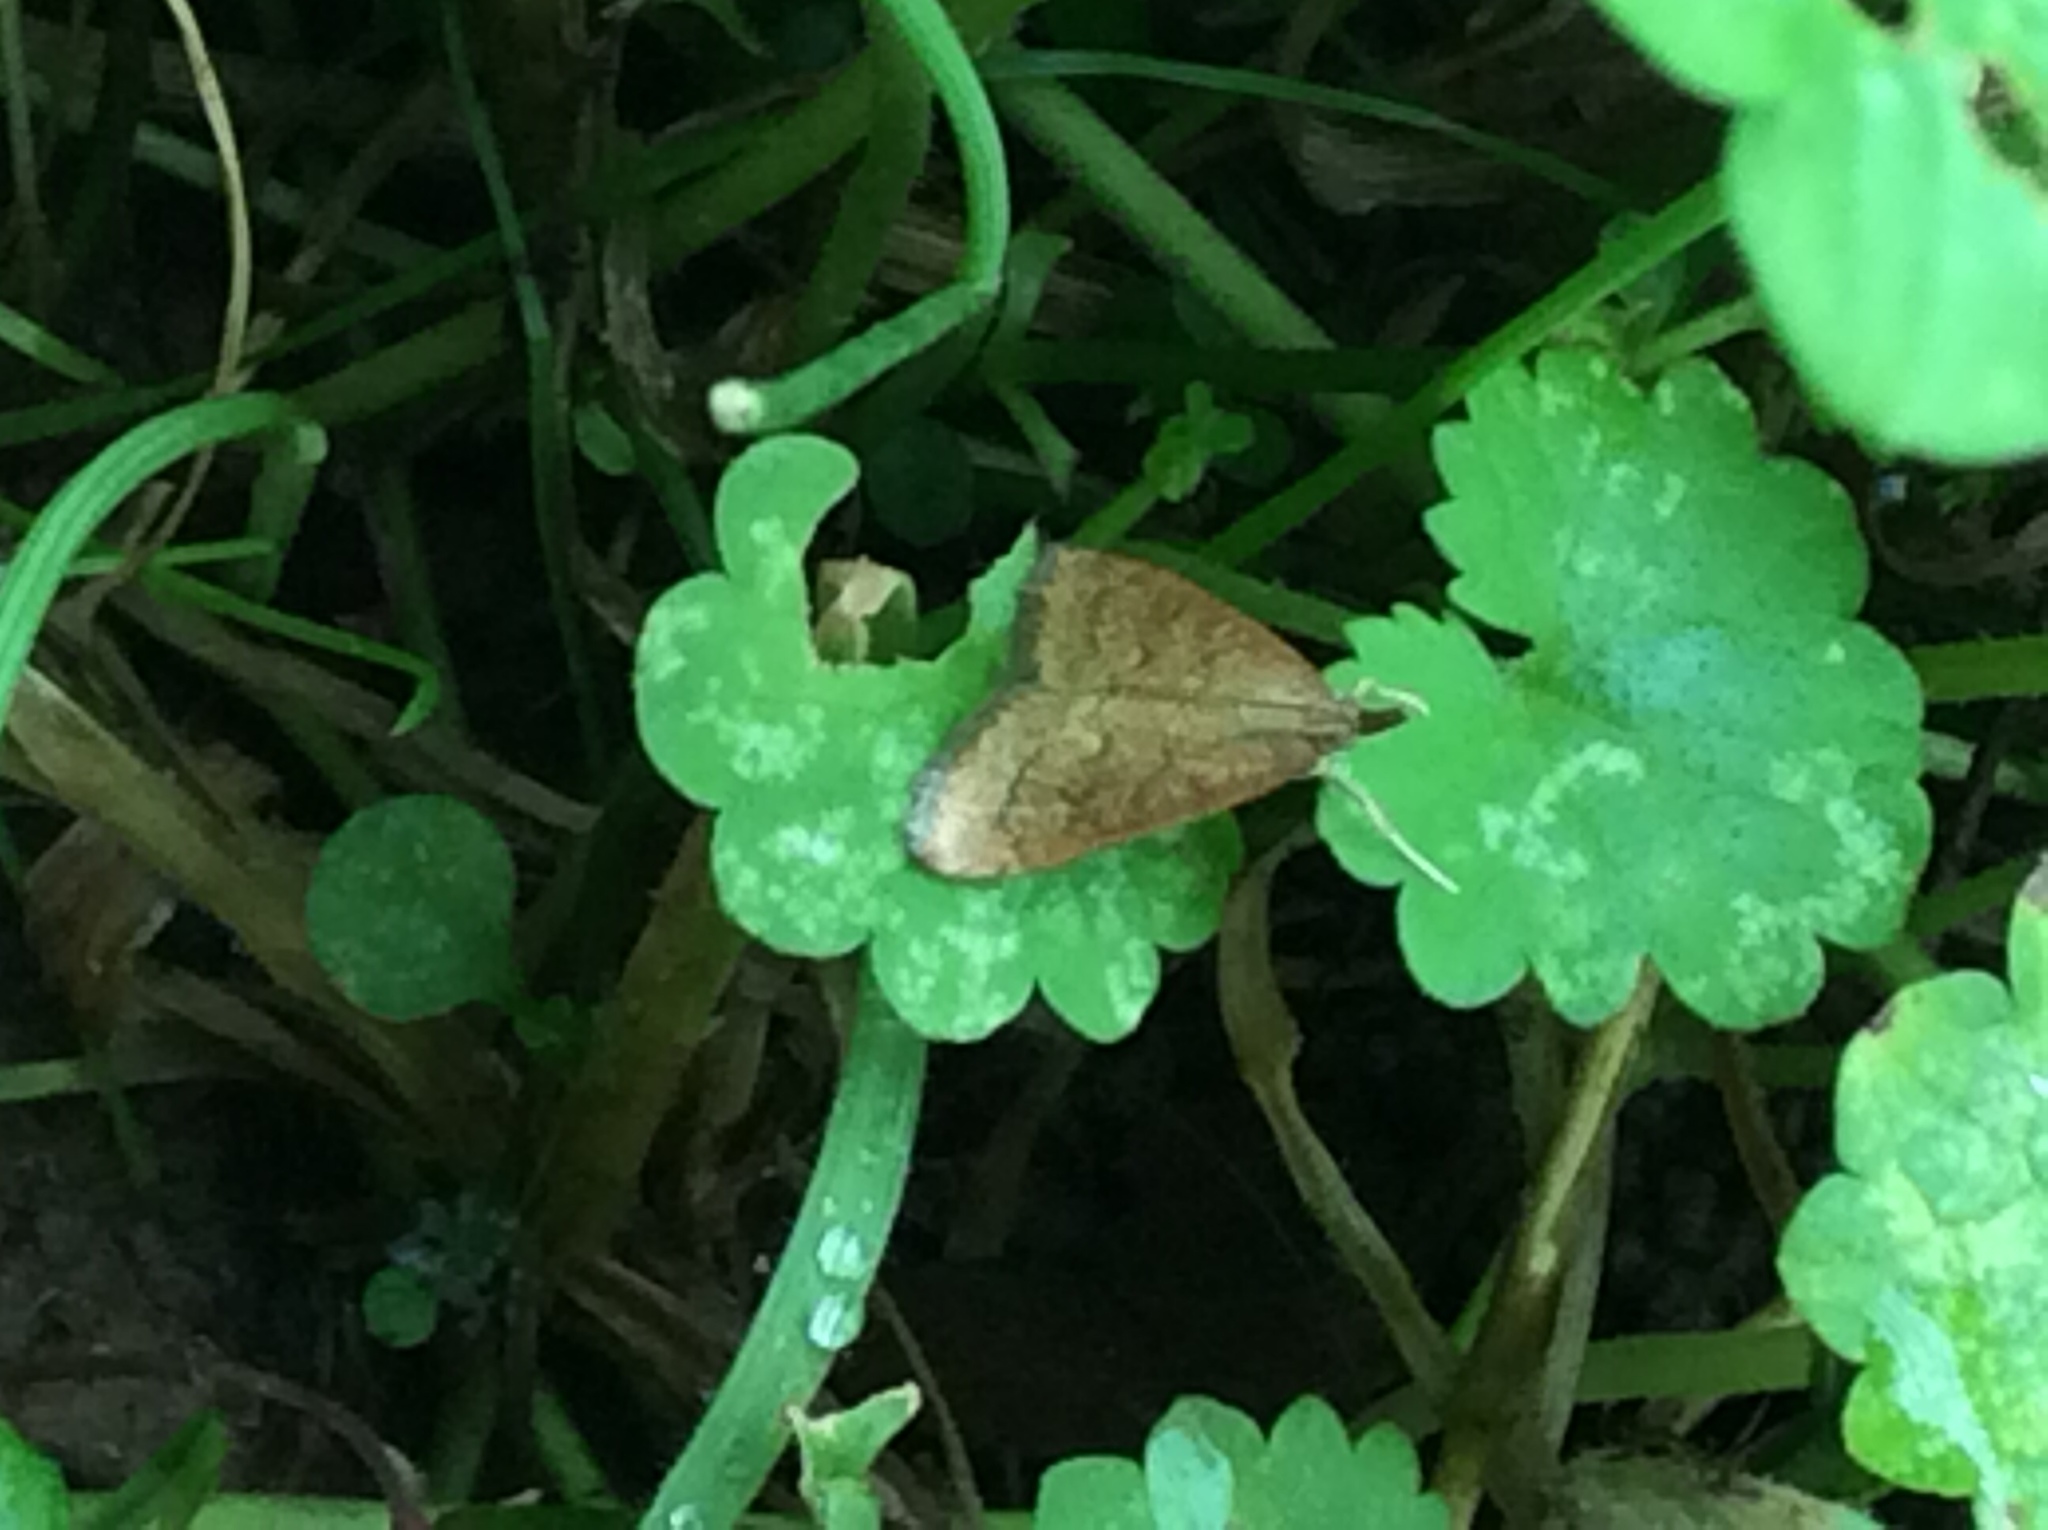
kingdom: Animalia
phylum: Arthropoda
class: Insecta
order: Lepidoptera
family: Crambidae
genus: Udea
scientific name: Udea rubigalis
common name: Celery leaftier moth
